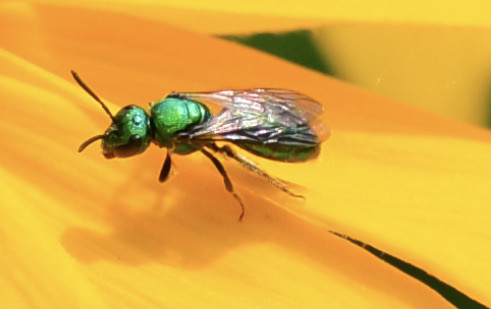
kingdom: Animalia
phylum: Arthropoda
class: Insecta
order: Hymenoptera
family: Halictidae
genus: Augochlora
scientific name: Augochlora pura
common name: Pure green sweat bee
